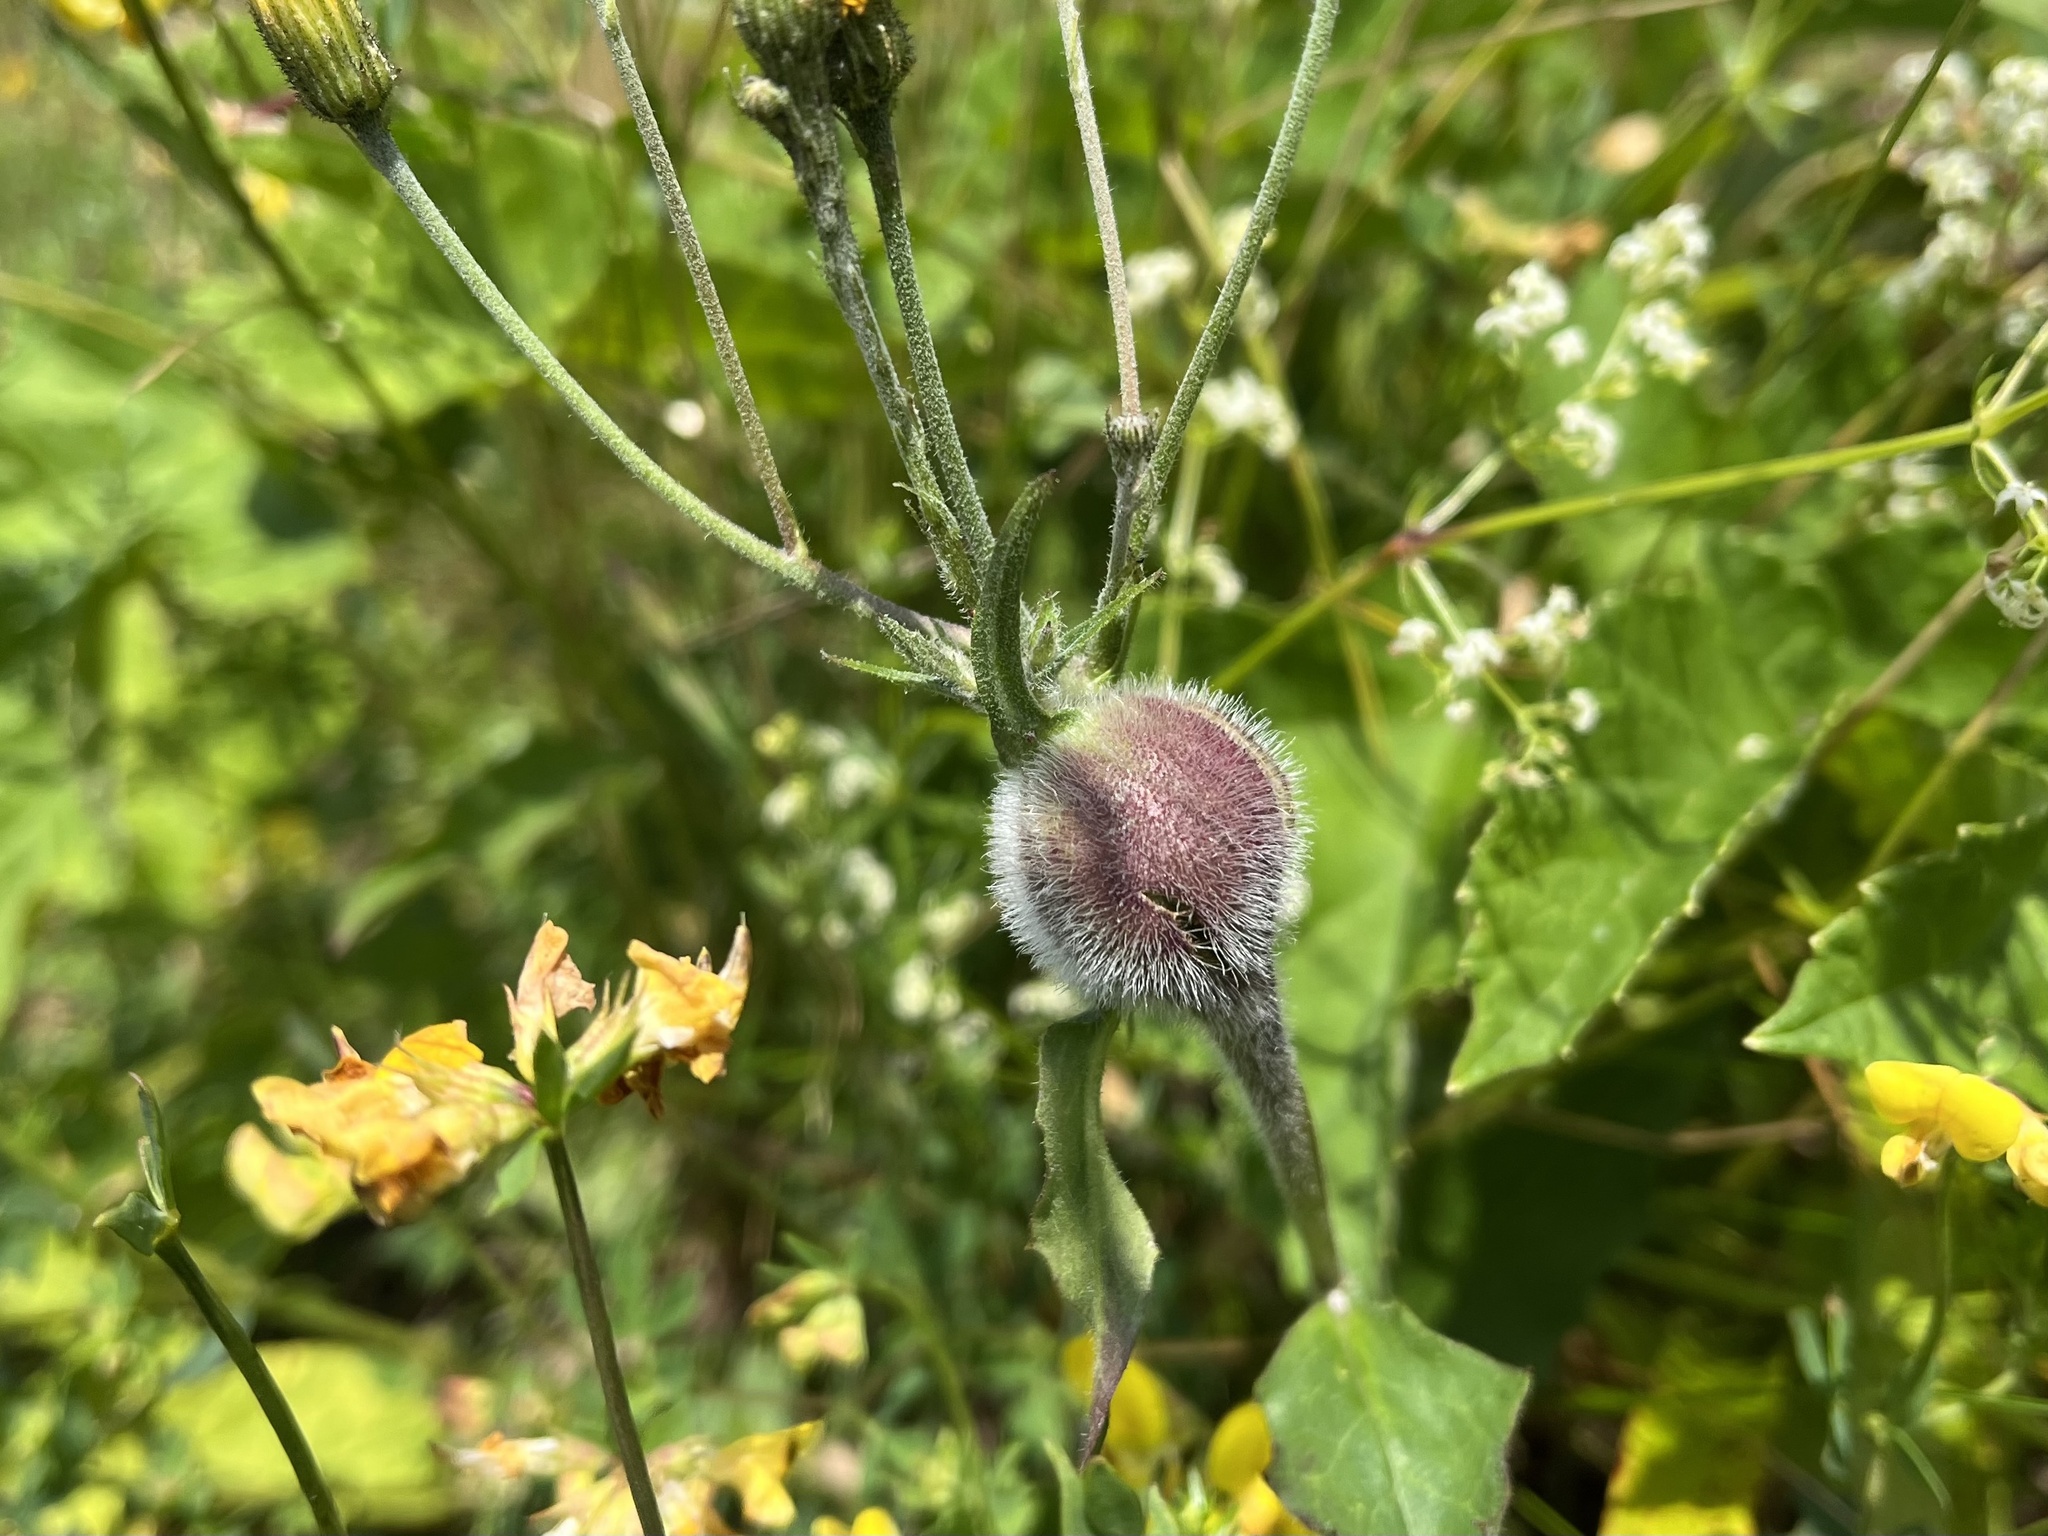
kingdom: Animalia
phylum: Arthropoda
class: Insecta
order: Hymenoptera
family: Cynipidae
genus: Aulacidea
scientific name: Aulacidea hieracii
